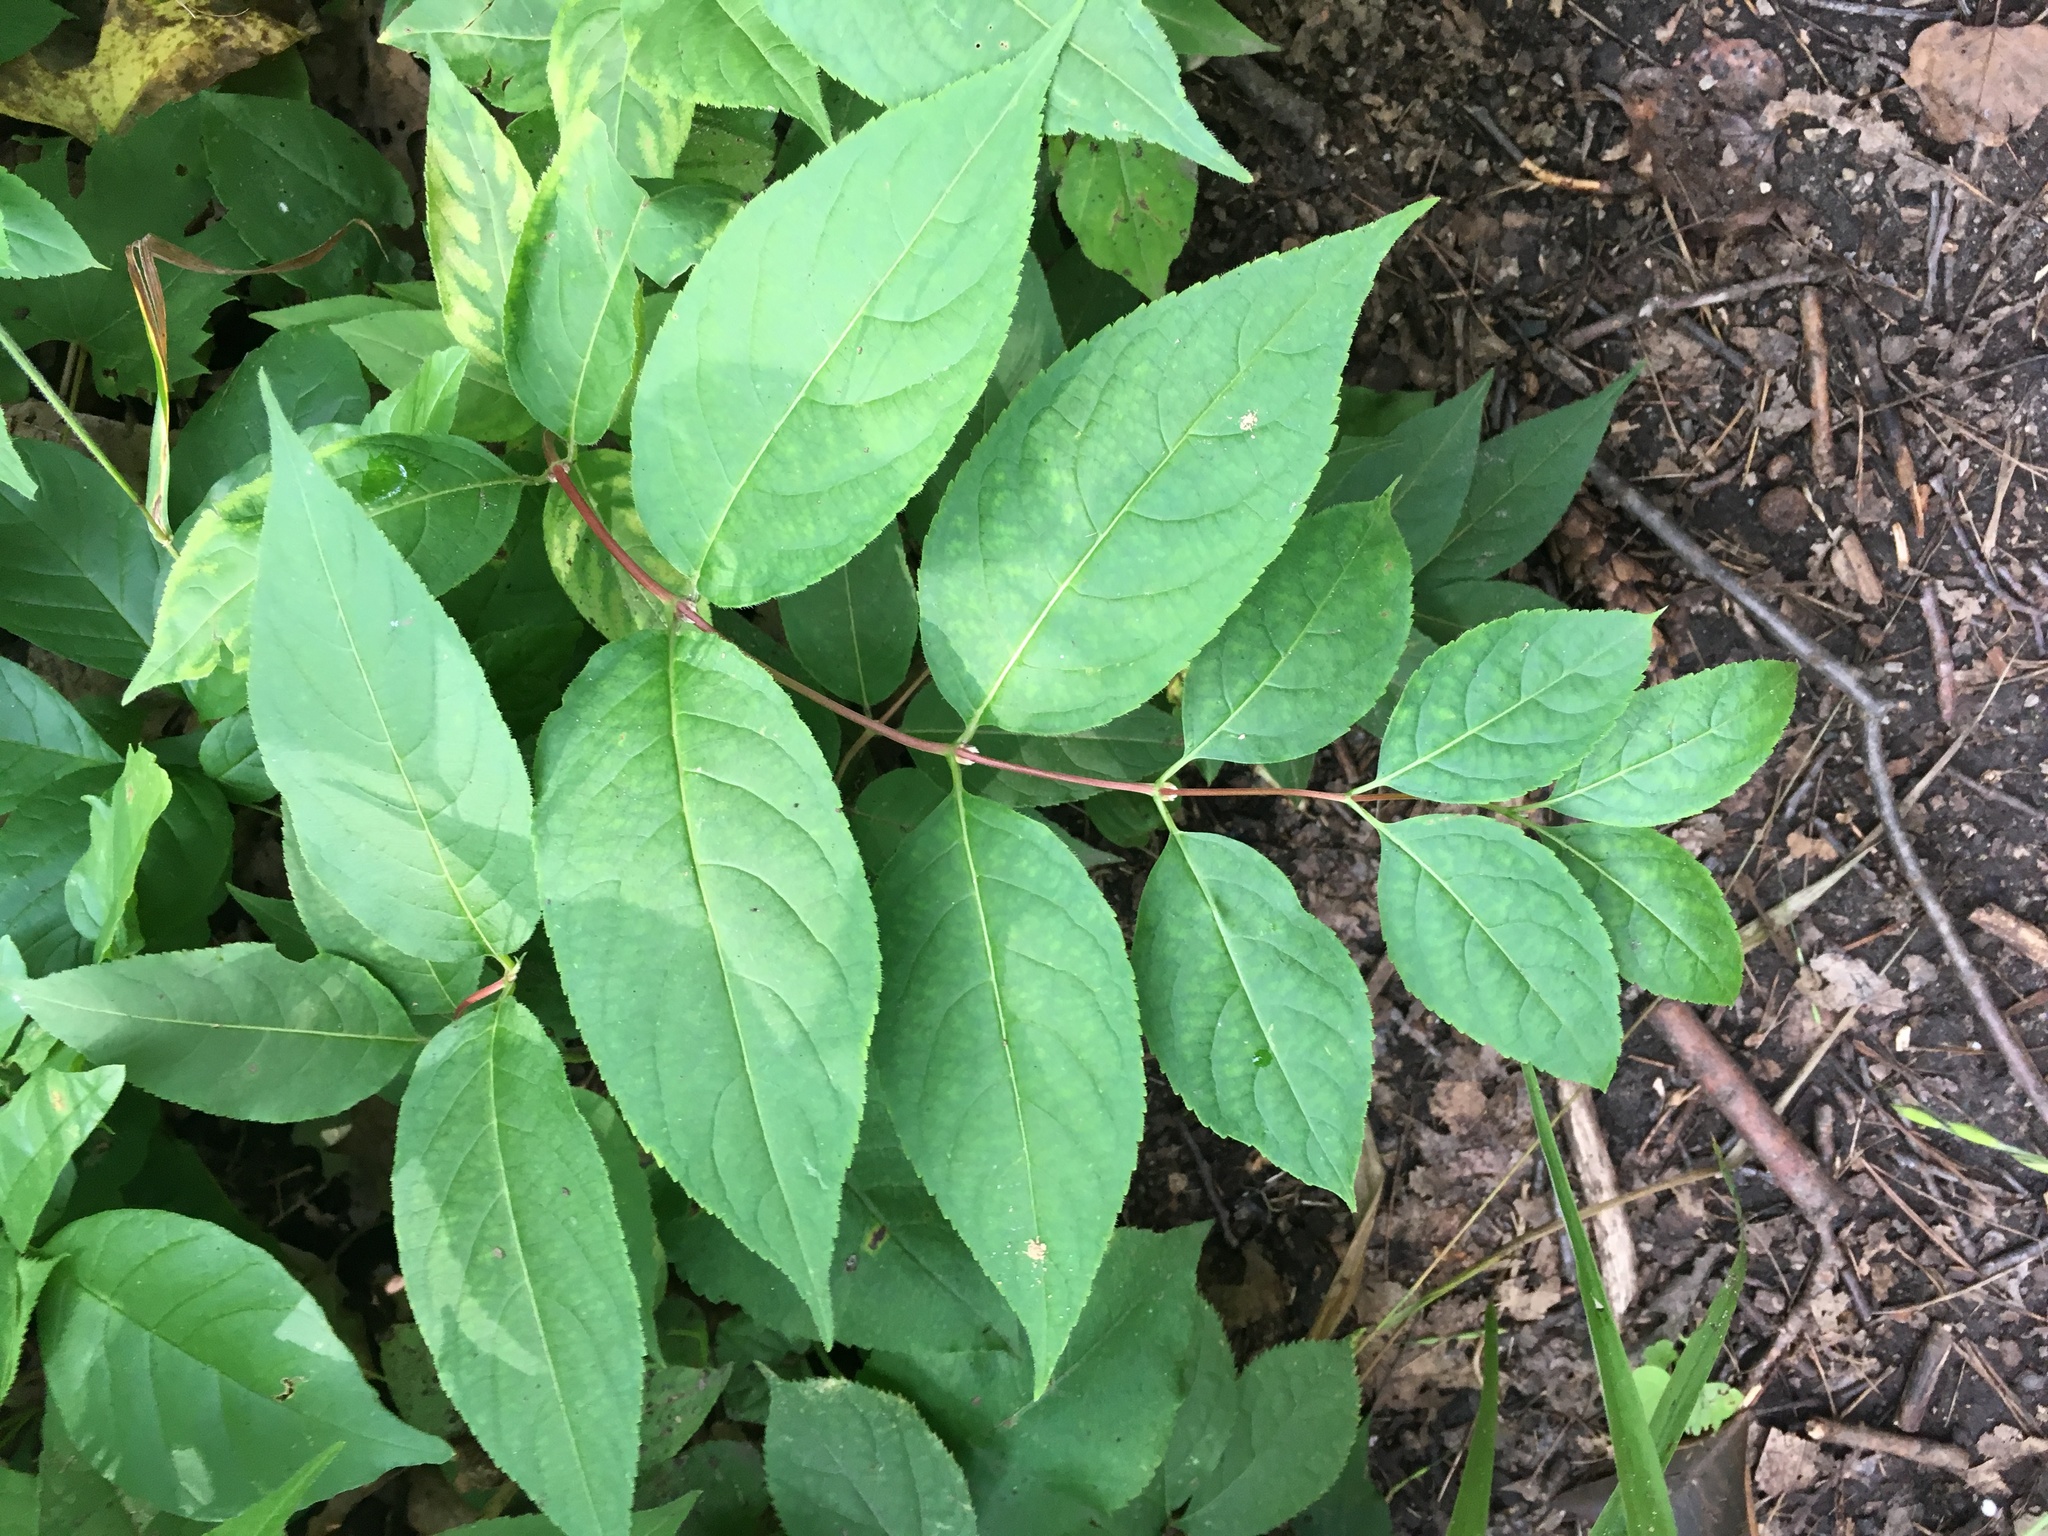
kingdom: Plantae
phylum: Tracheophyta
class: Magnoliopsida
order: Dipsacales
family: Caprifoliaceae
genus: Diervilla
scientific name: Diervilla lonicera
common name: Bush-honeysuckle
